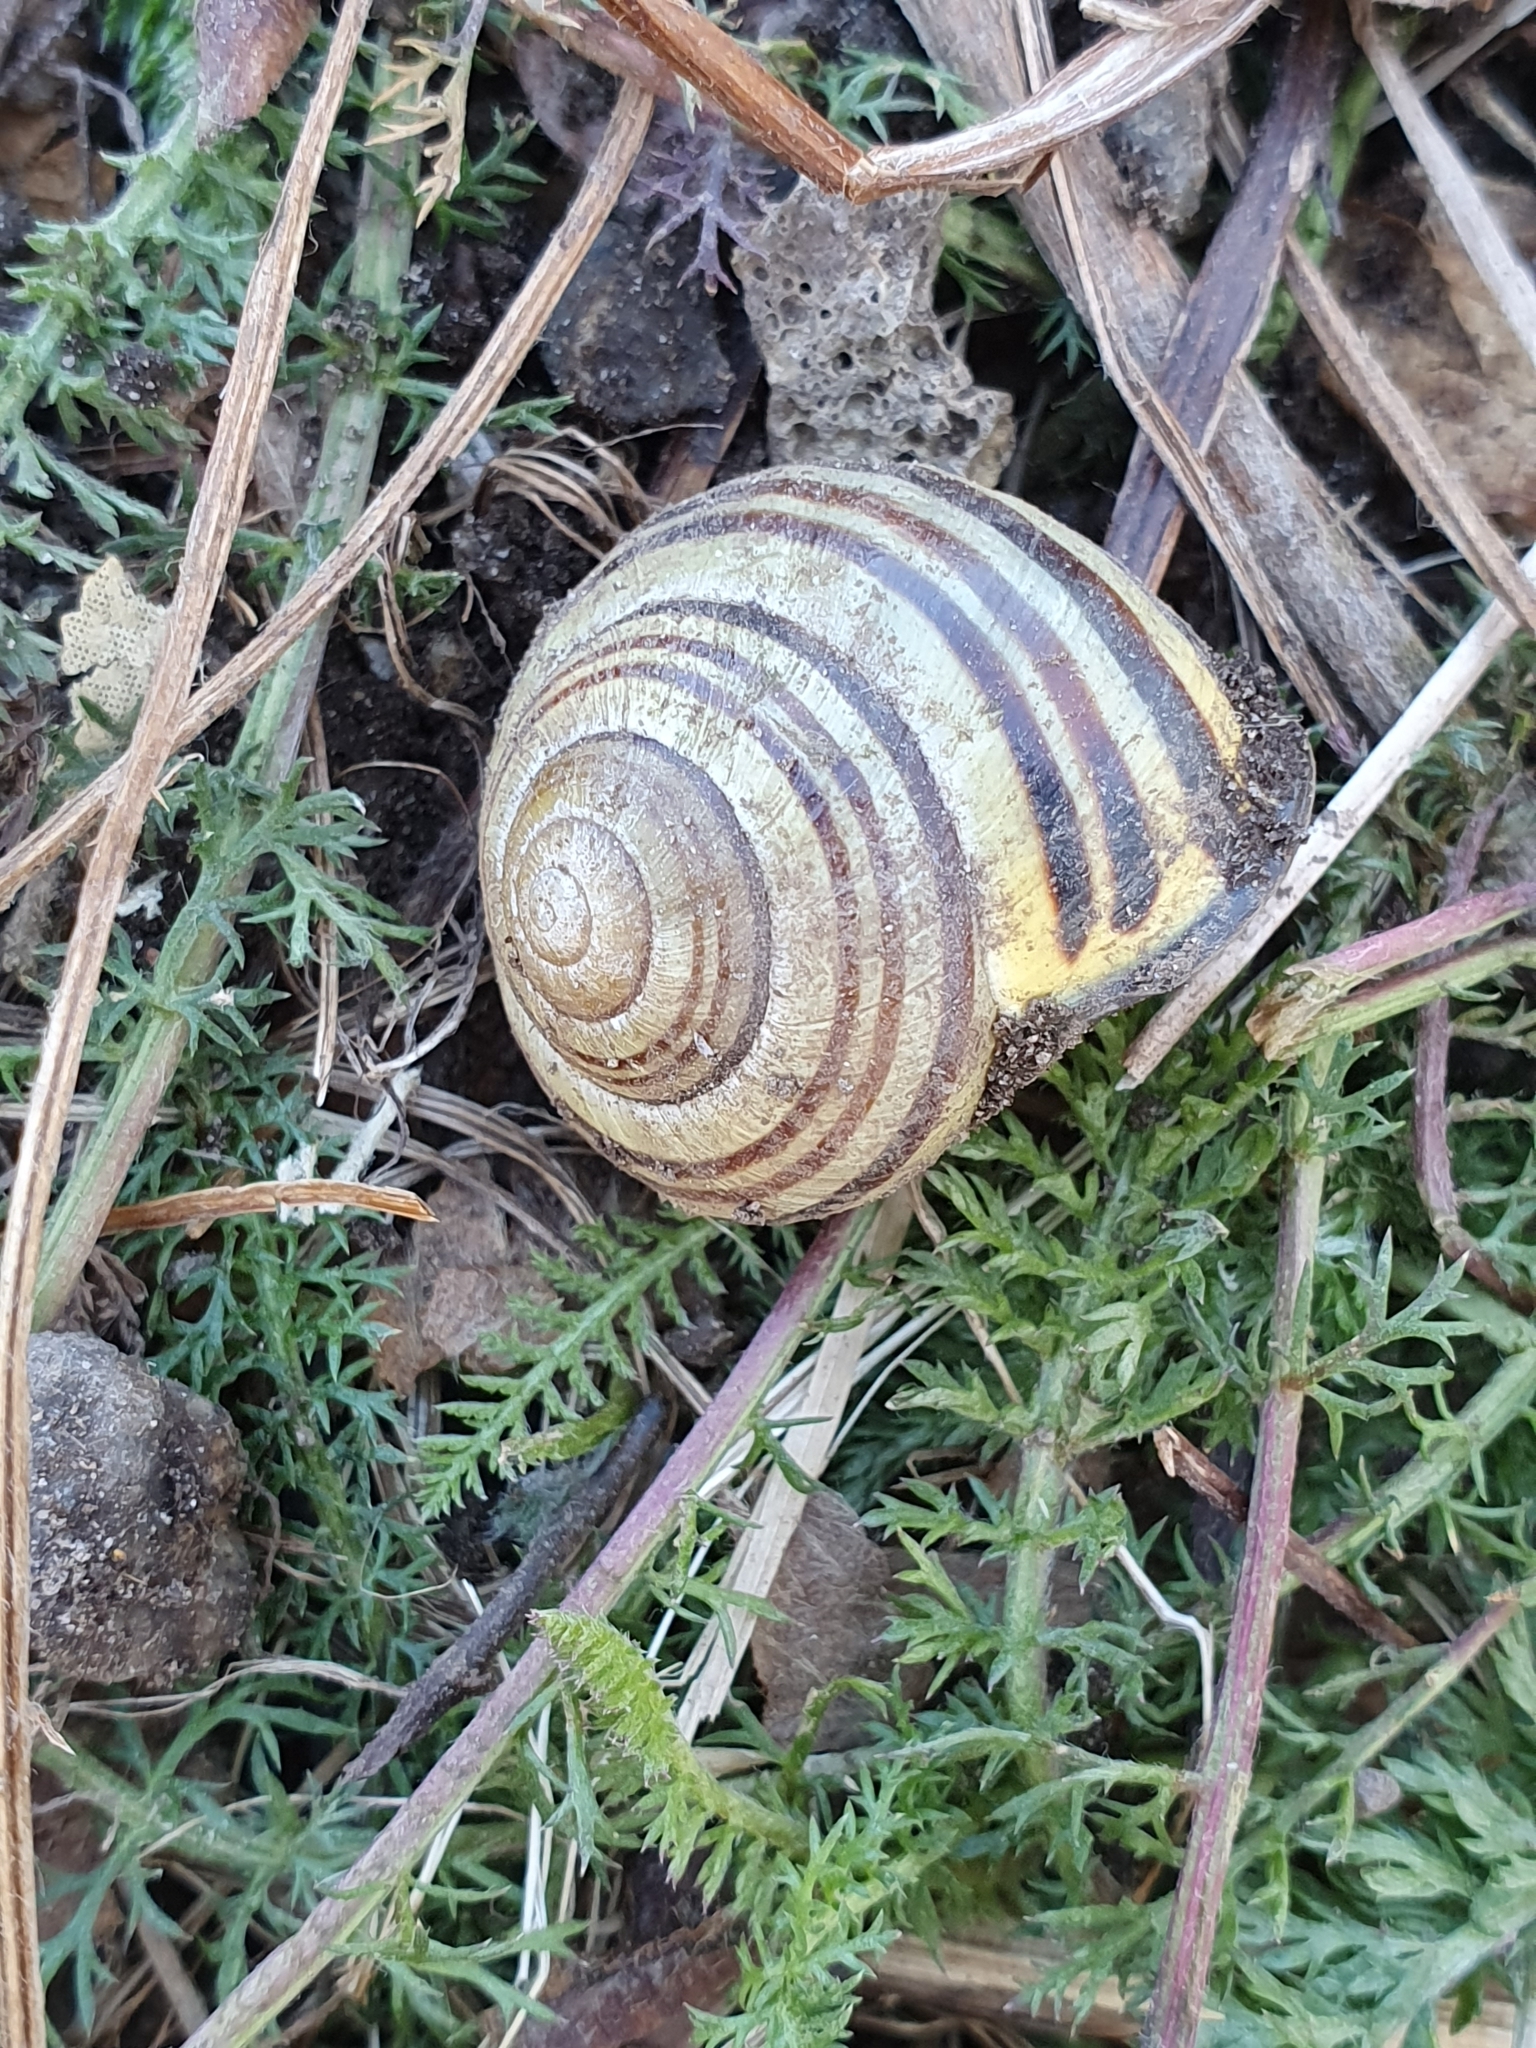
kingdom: Animalia
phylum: Mollusca
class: Gastropoda
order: Stylommatophora
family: Helicidae
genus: Cepaea
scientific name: Cepaea nemoralis
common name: Grovesnail
